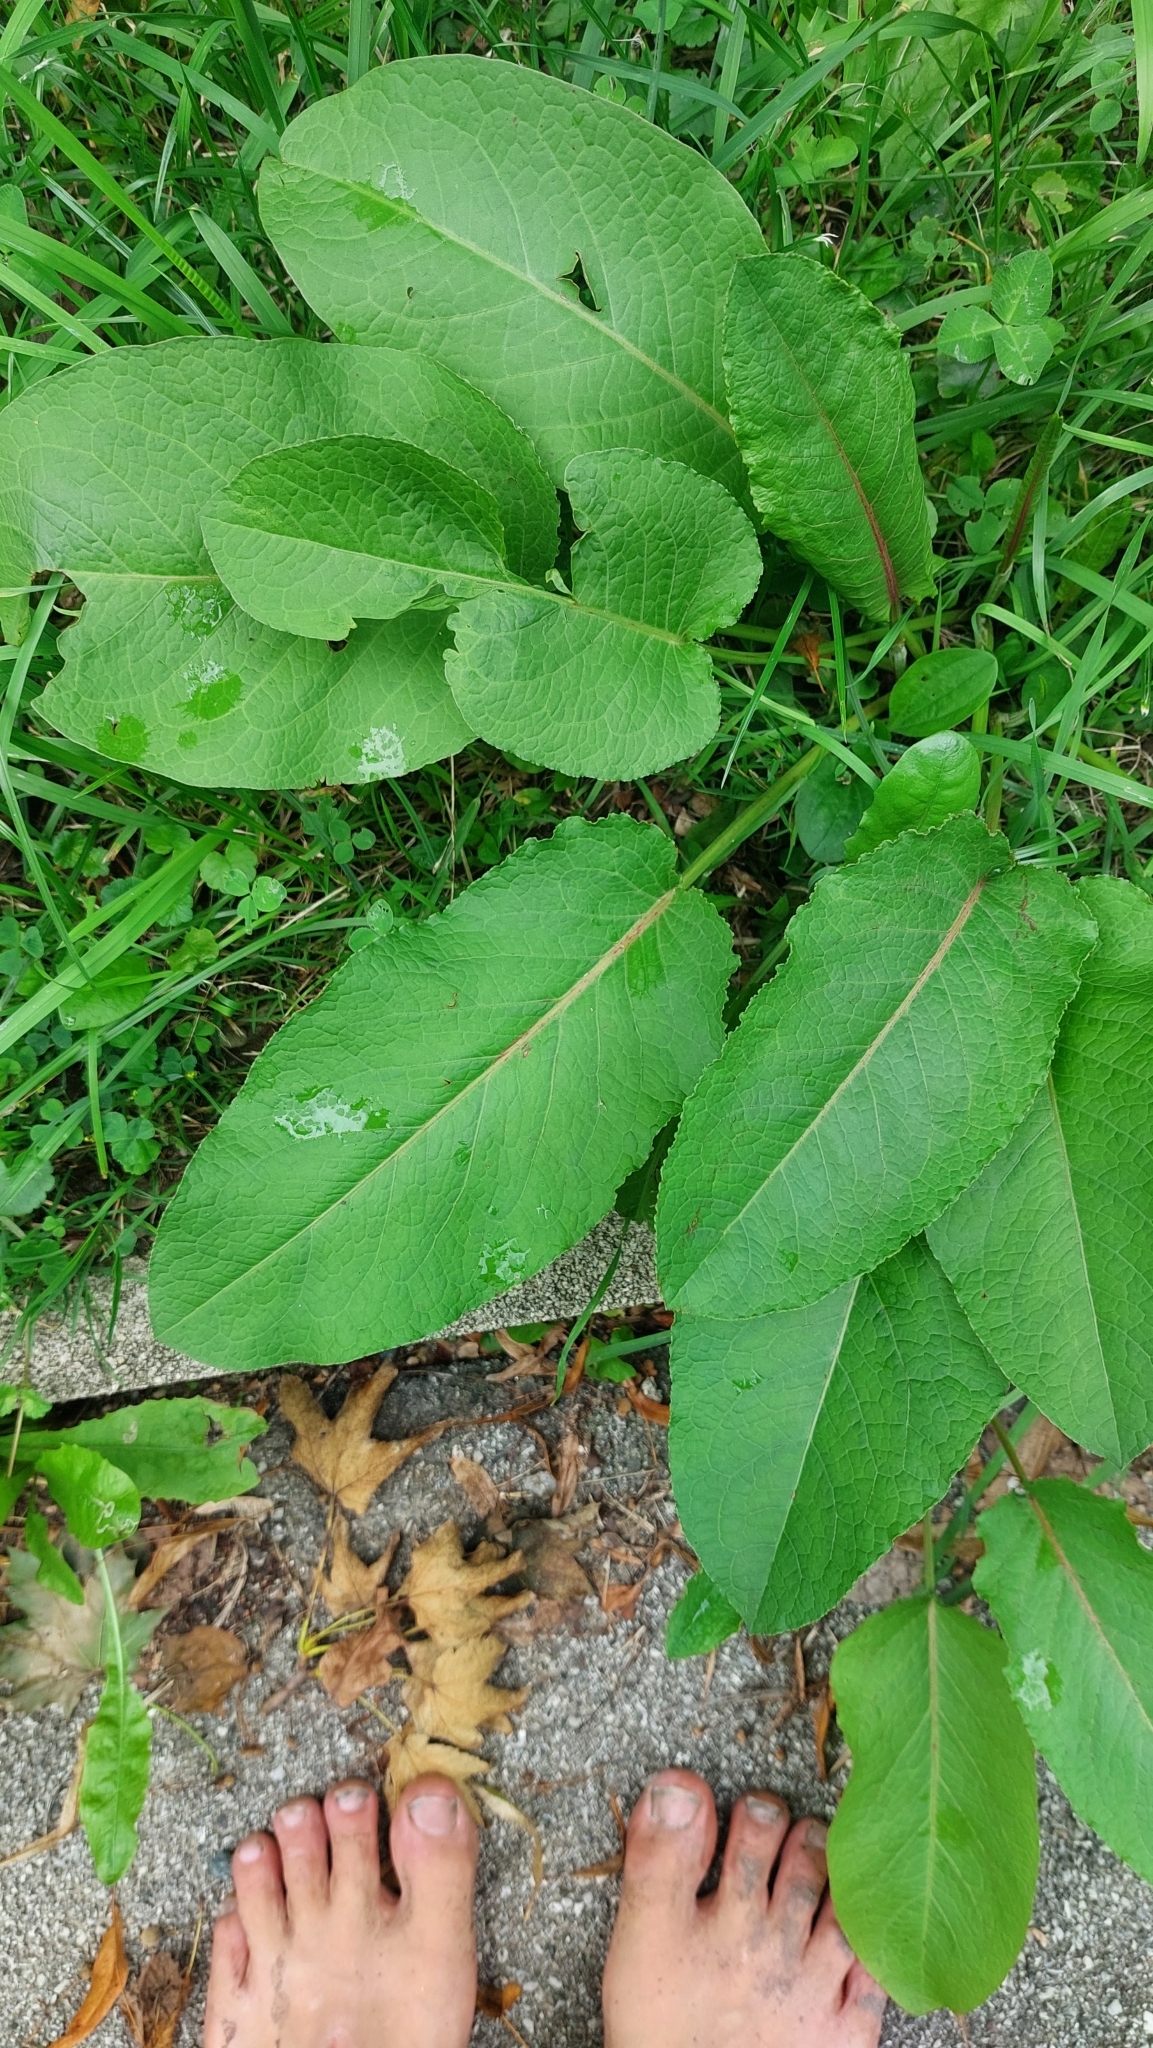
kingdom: Plantae
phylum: Tracheophyta
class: Magnoliopsida
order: Caryophyllales
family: Polygonaceae
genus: Rumex
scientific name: Rumex obtusifolius
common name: Bitter dock
